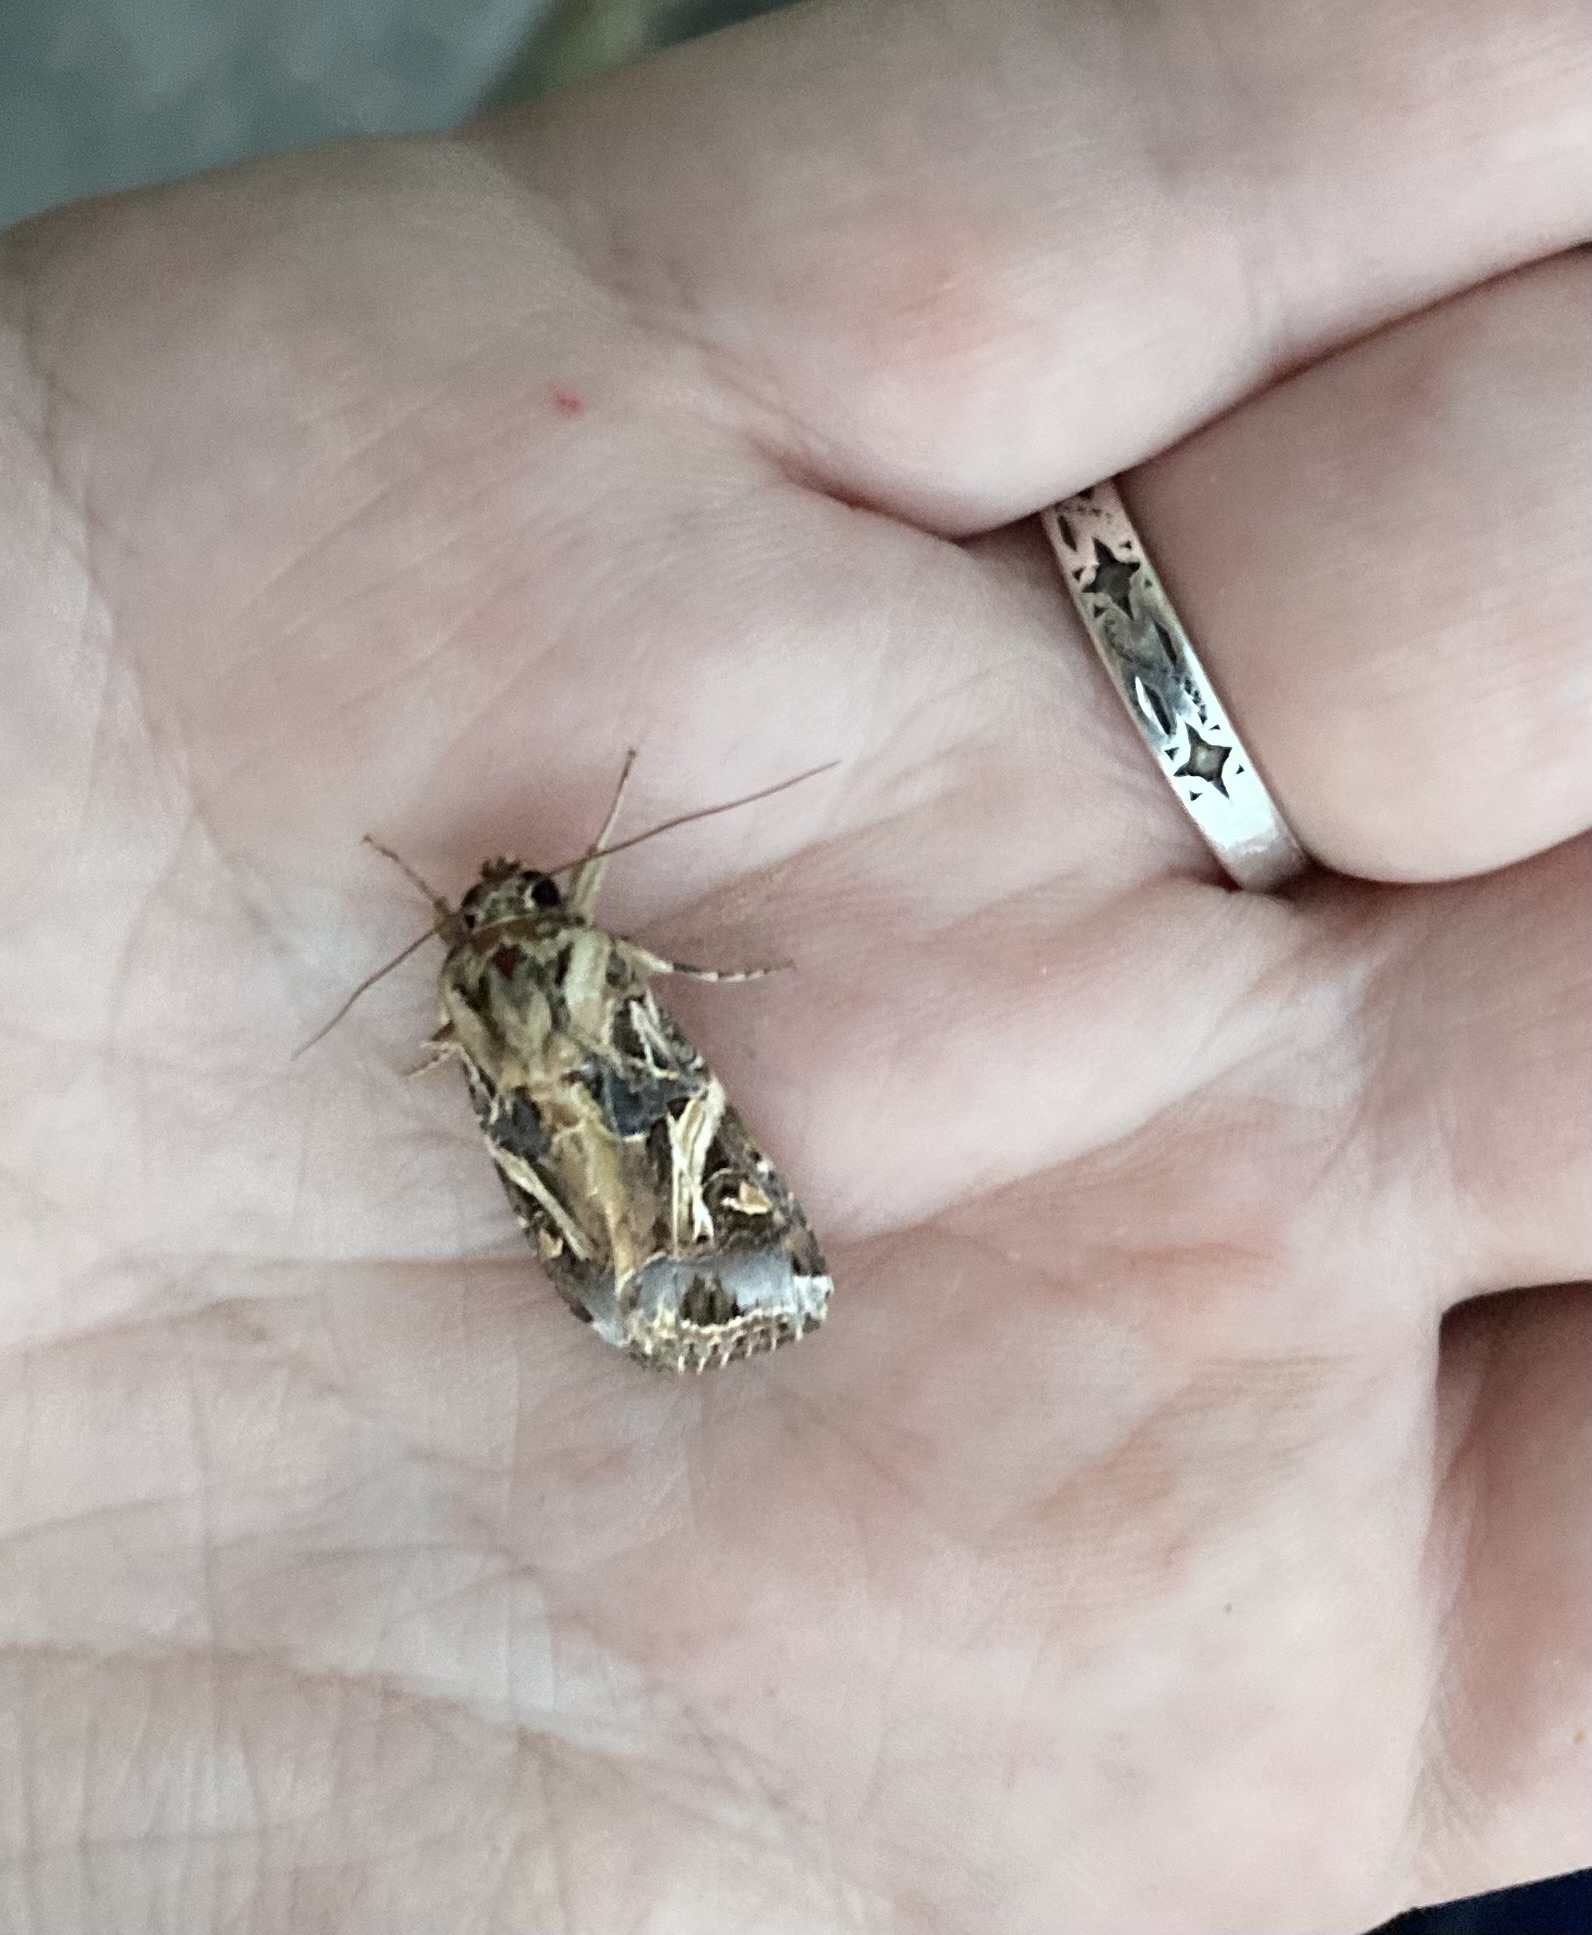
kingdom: Animalia
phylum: Arthropoda
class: Insecta
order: Lepidoptera
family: Noctuidae
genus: Spodoptera
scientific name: Spodoptera litura
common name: Asian cotton leafworm
